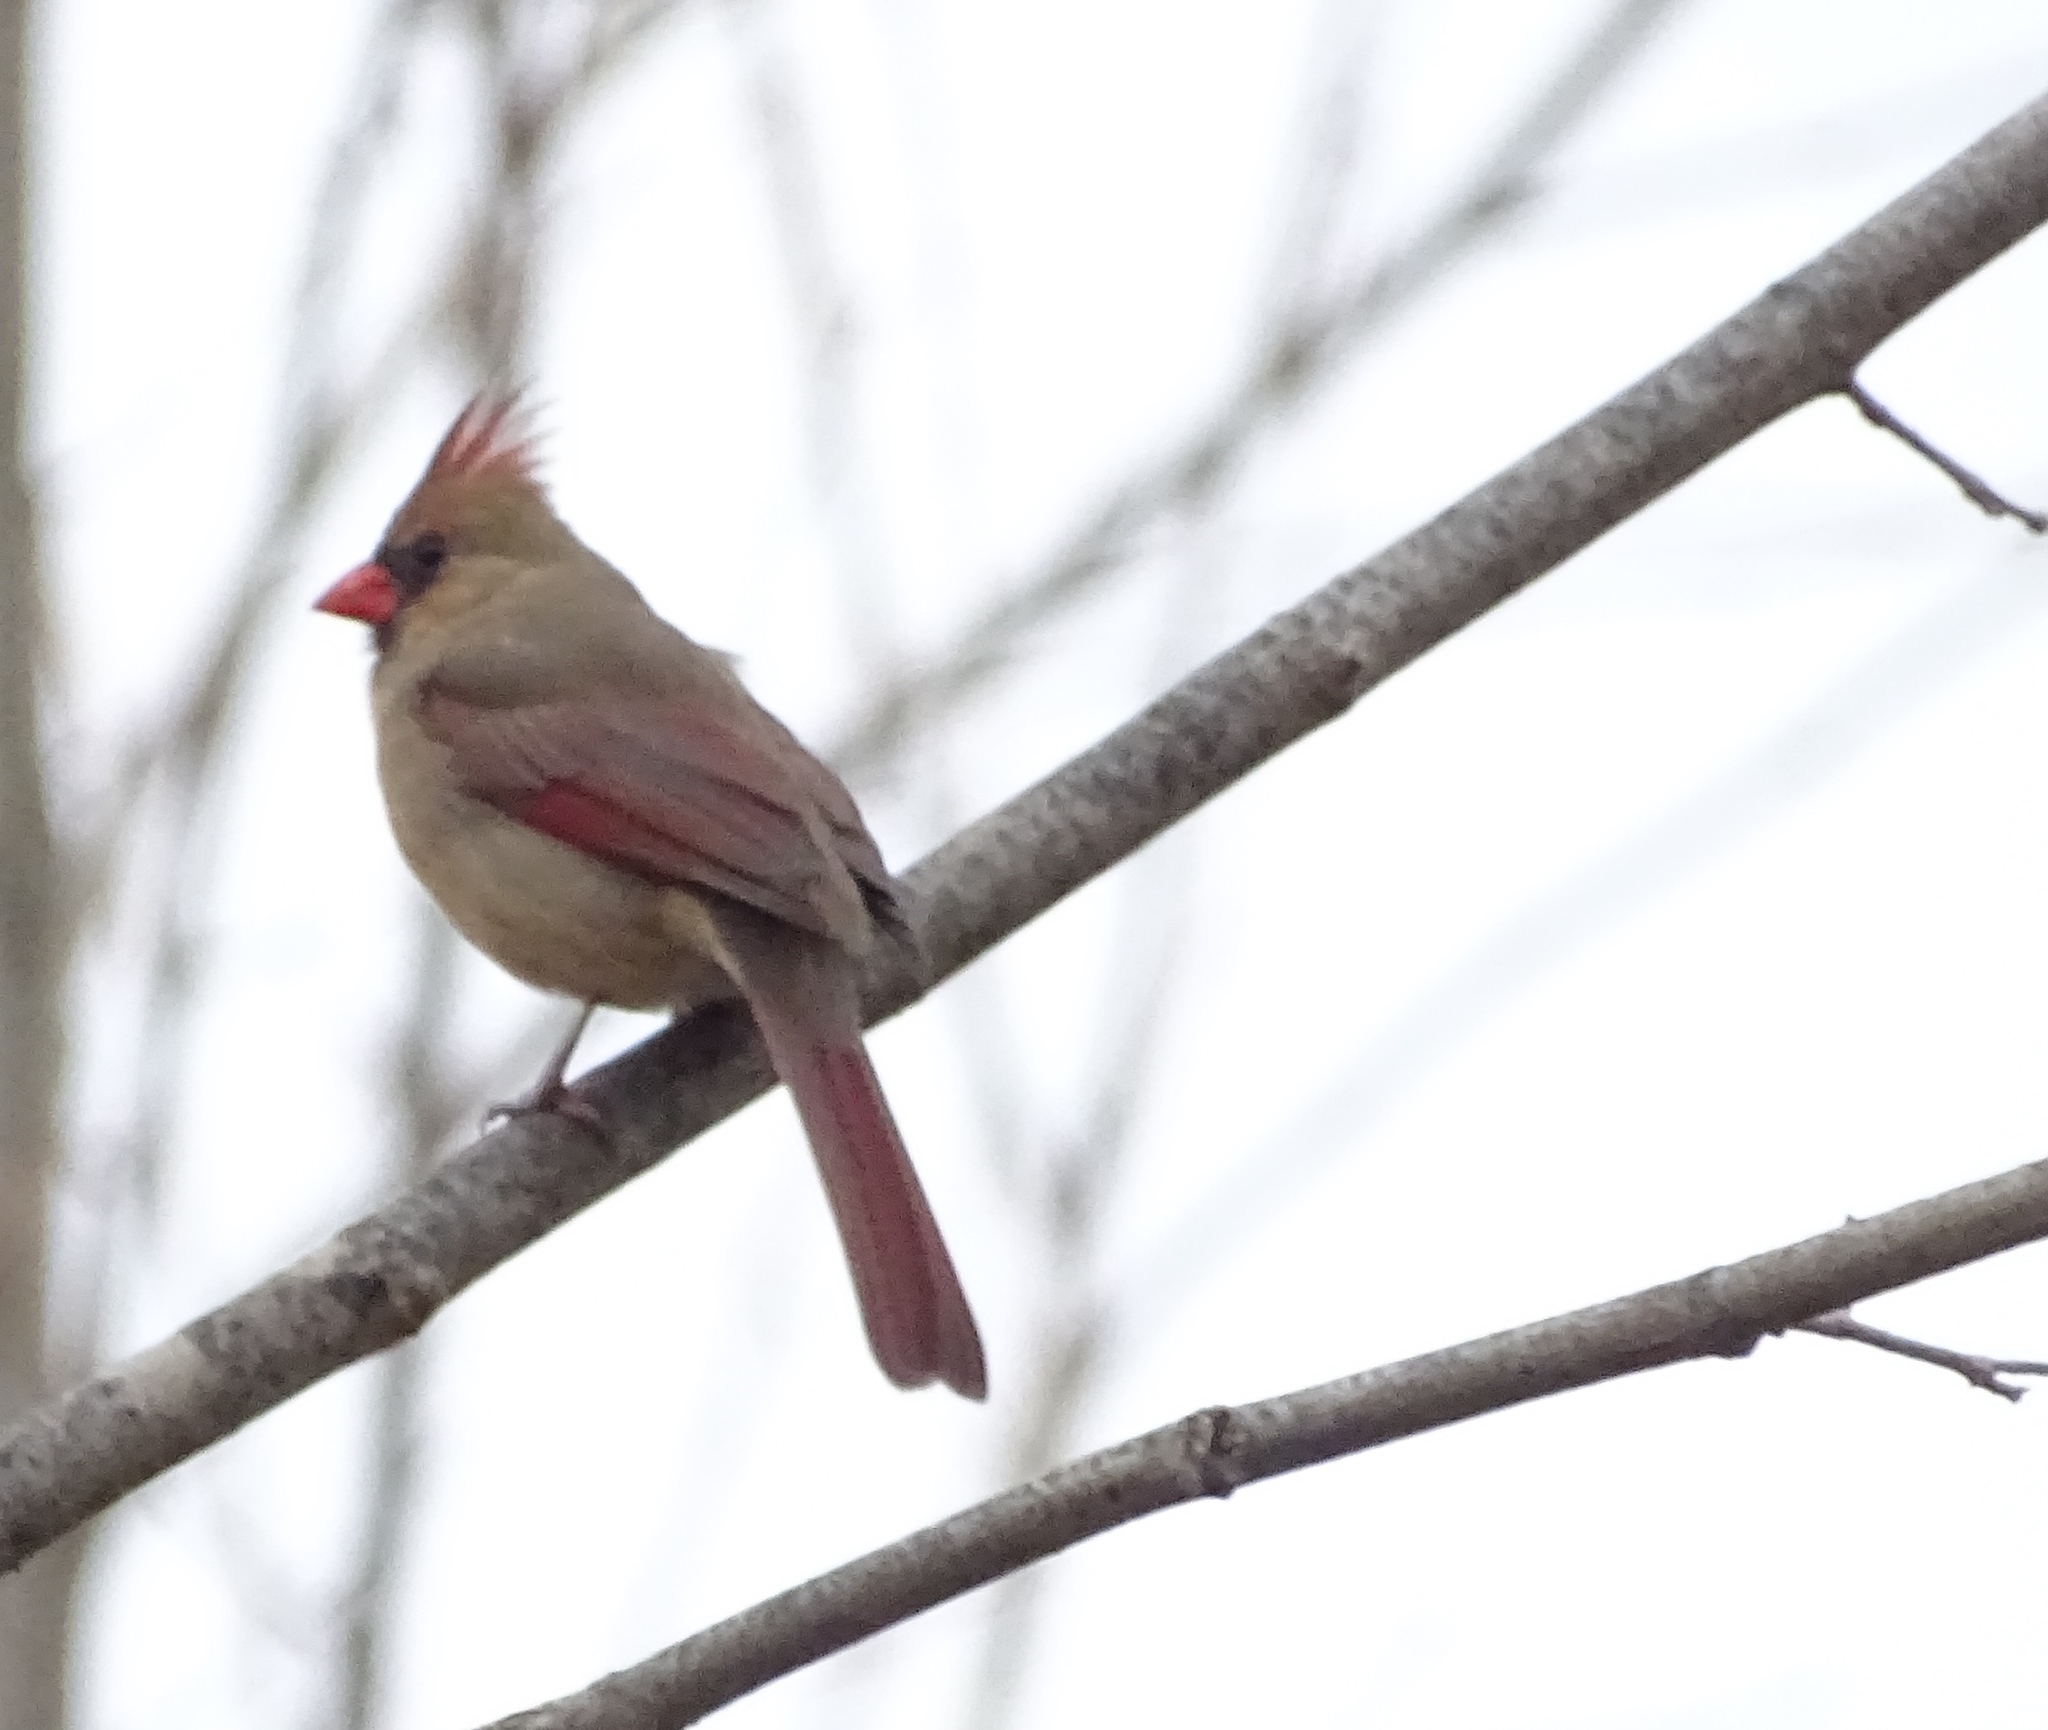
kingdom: Animalia
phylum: Chordata
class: Aves
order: Passeriformes
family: Cardinalidae
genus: Cardinalis
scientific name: Cardinalis cardinalis
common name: Northern cardinal
